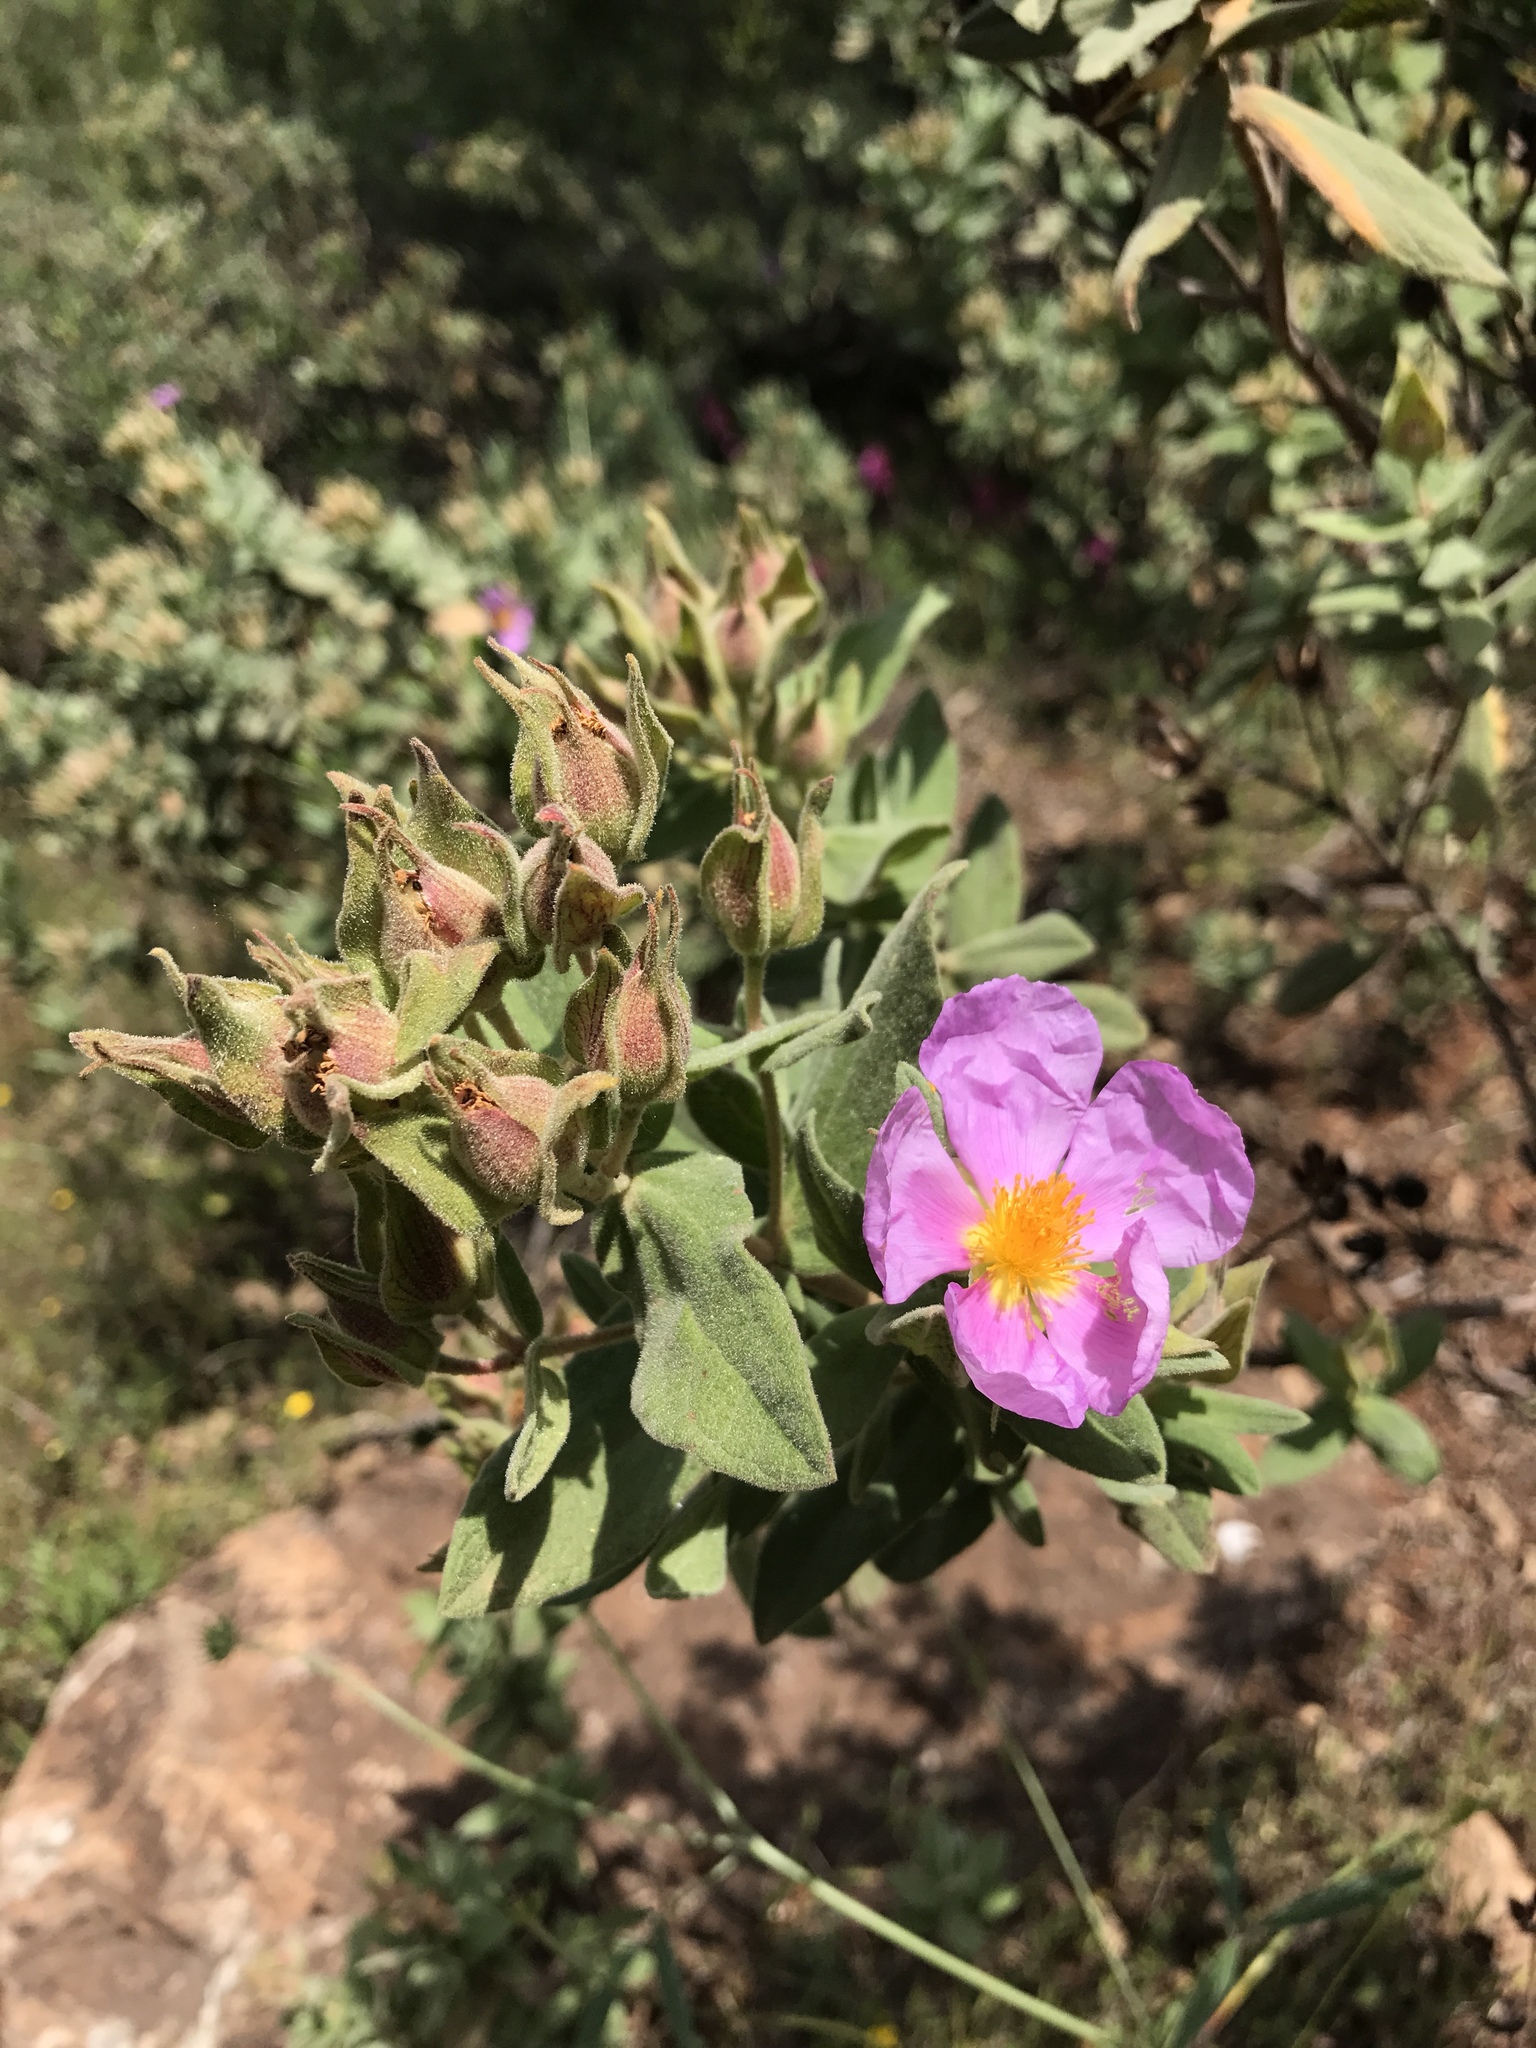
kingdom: Plantae
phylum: Tracheophyta
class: Magnoliopsida
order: Malvales
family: Cistaceae
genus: Cistus
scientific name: Cistus albidus
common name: White-leaf rock-rose
